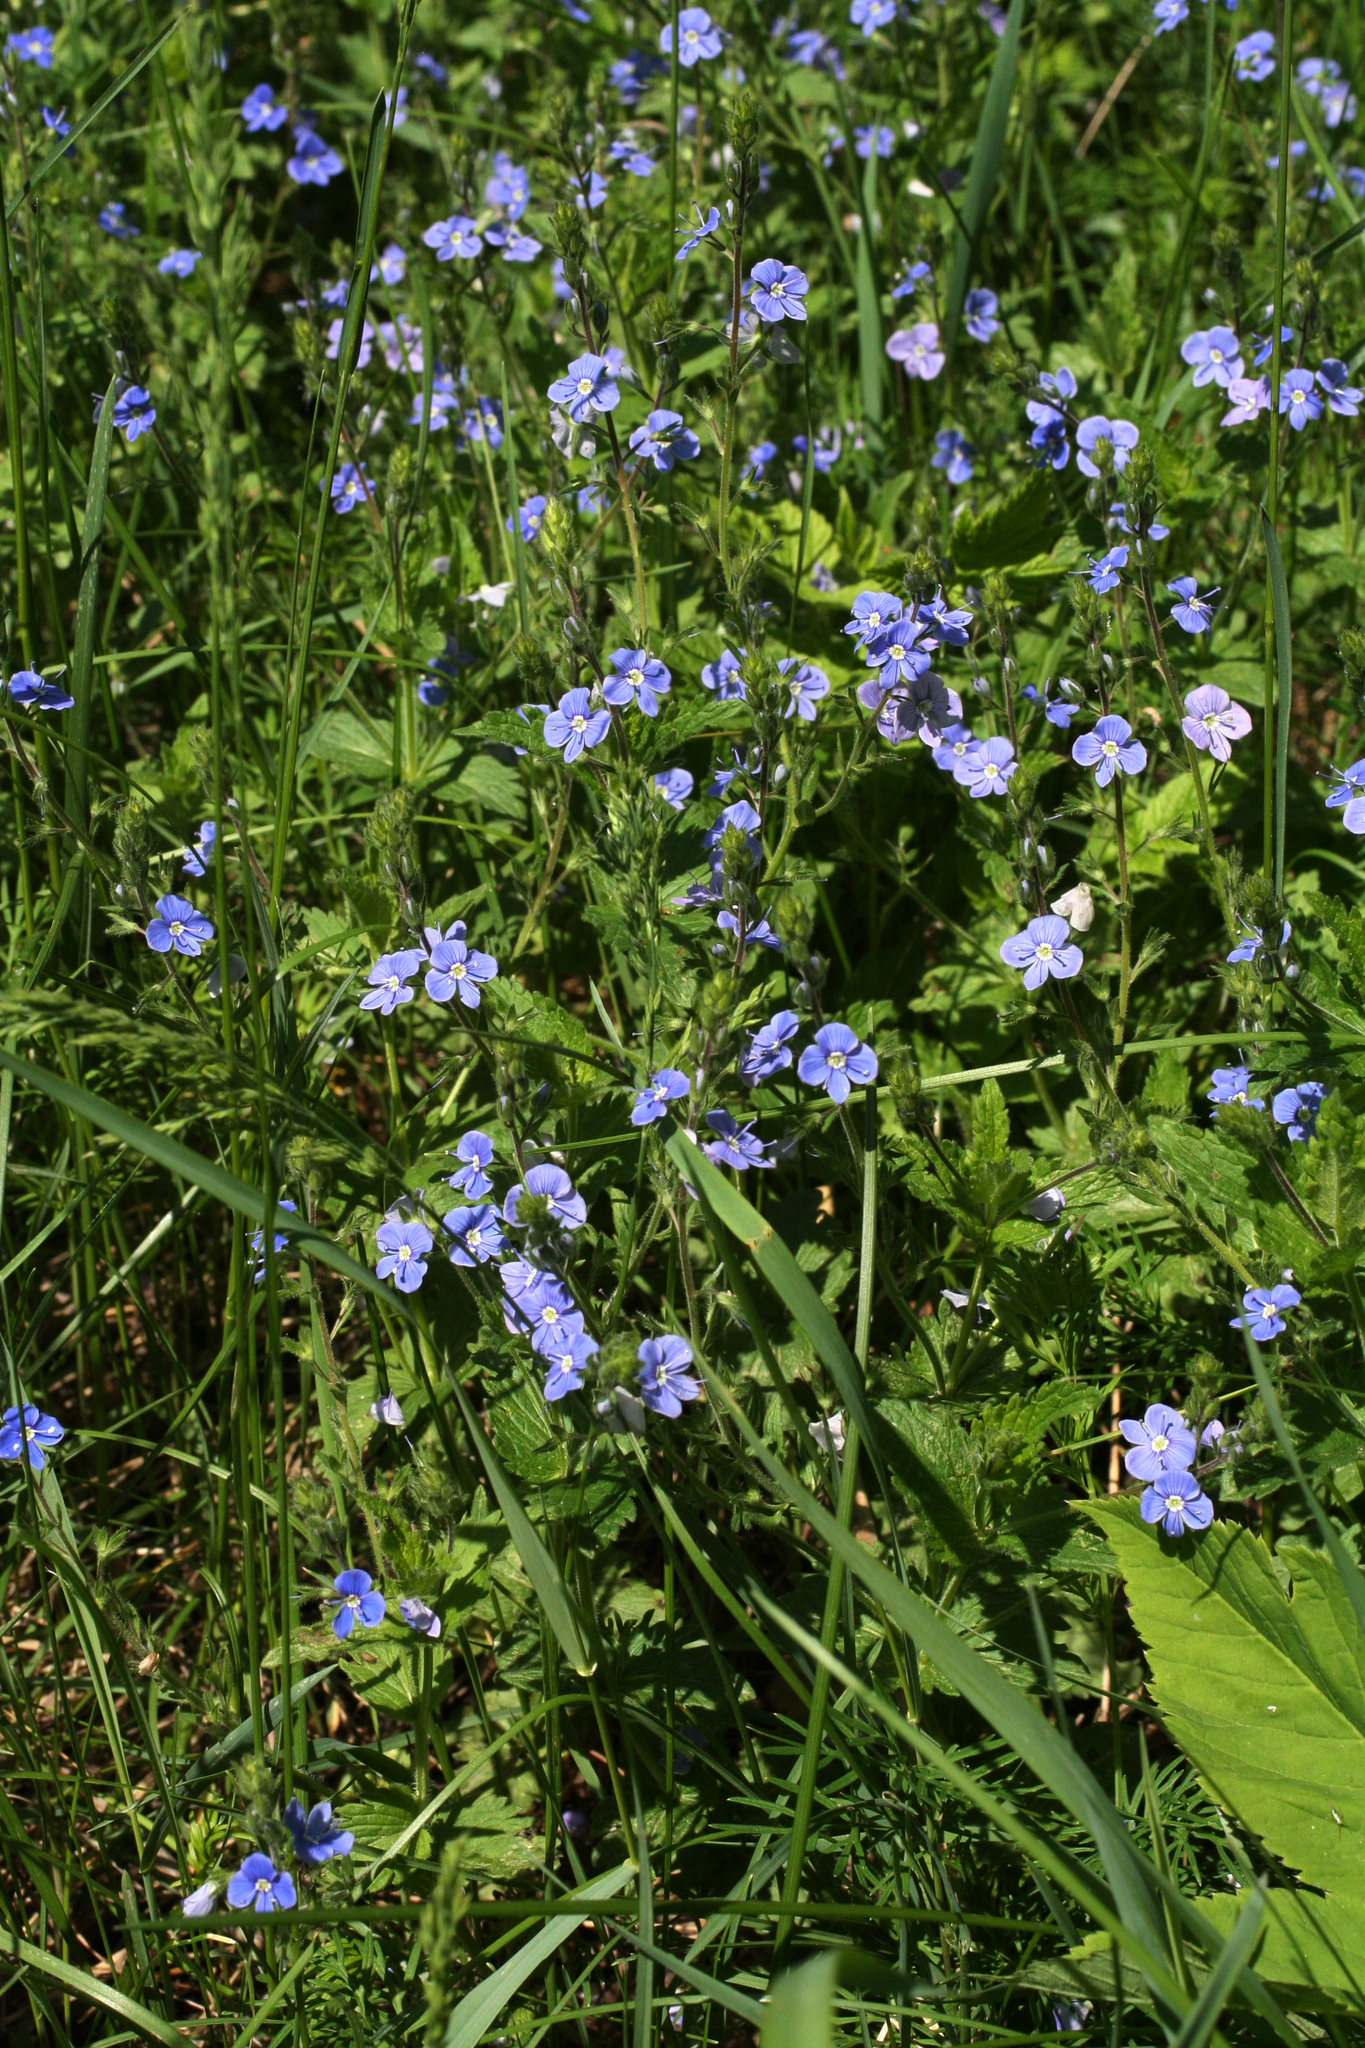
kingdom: Plantae
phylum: Tracheophyta
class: Magnoliopsida
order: Lamiales
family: Plantaginaceae
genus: Veronica
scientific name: Veronica chamaedrys
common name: Germander speedwell
